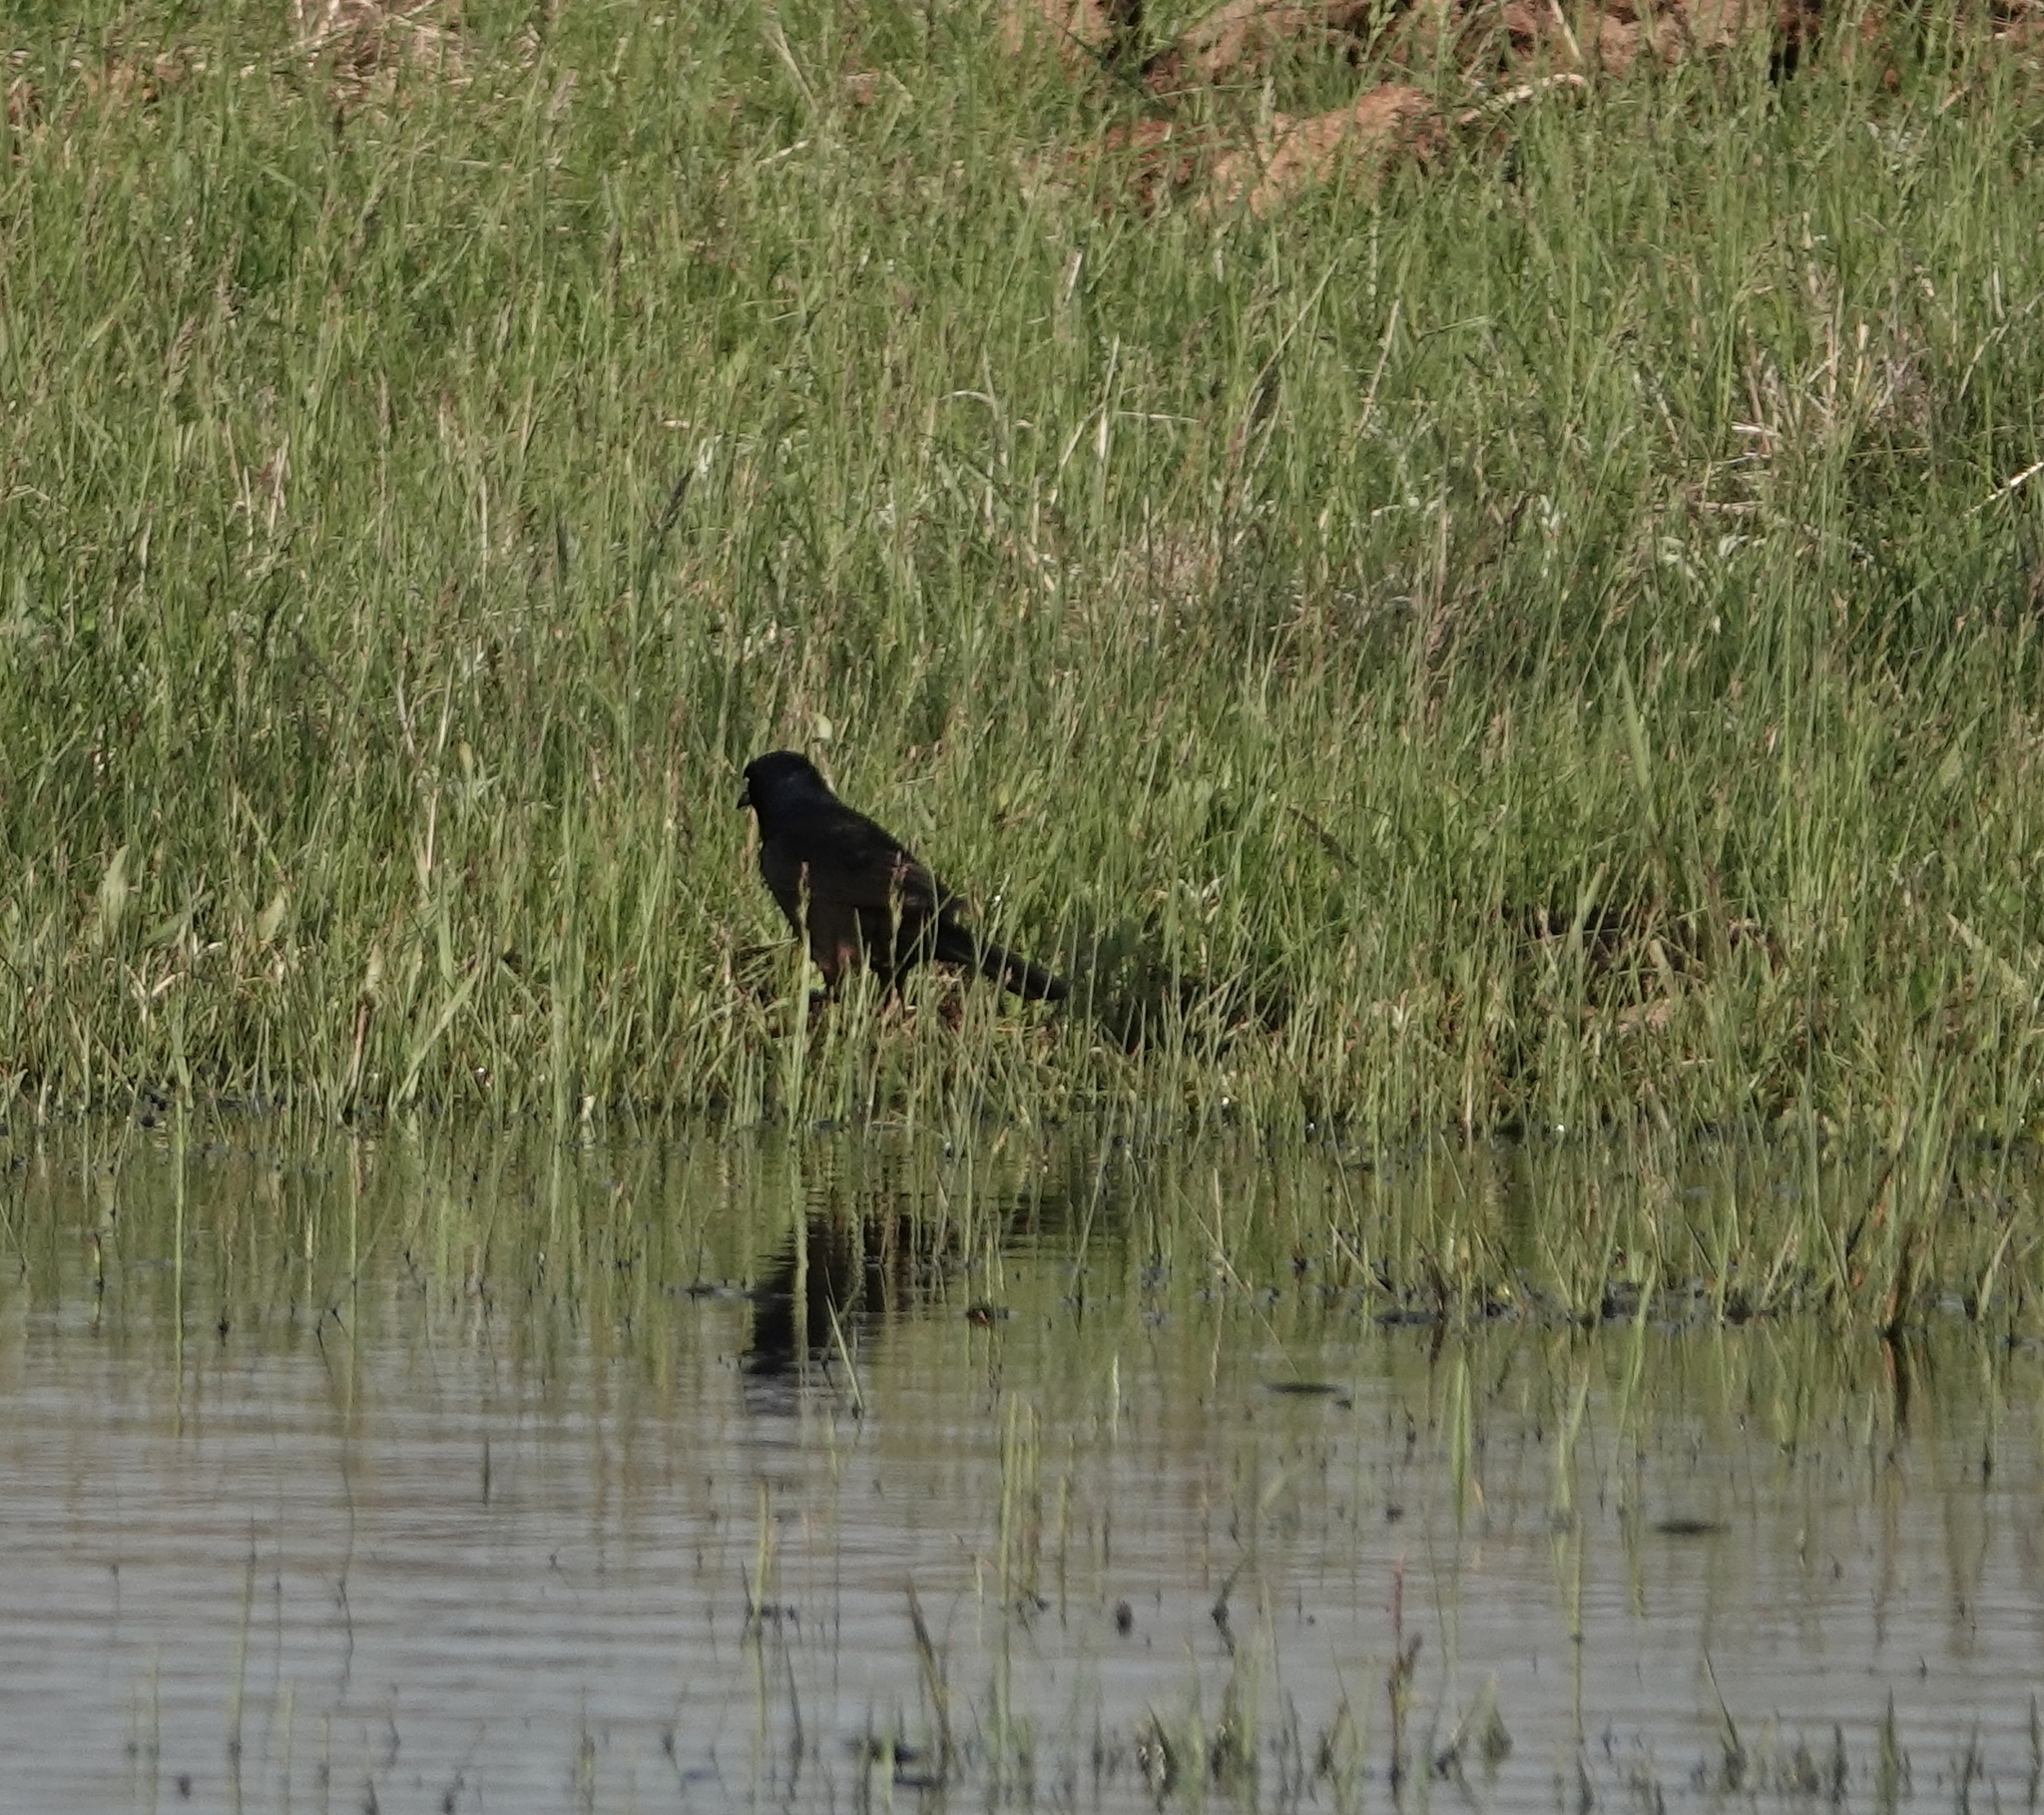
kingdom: Animalia
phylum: Chordata
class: Aves
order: Passeriformes
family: Icteridae
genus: Quiscalus
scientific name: Quiscalus quiscula
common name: Common grackle
